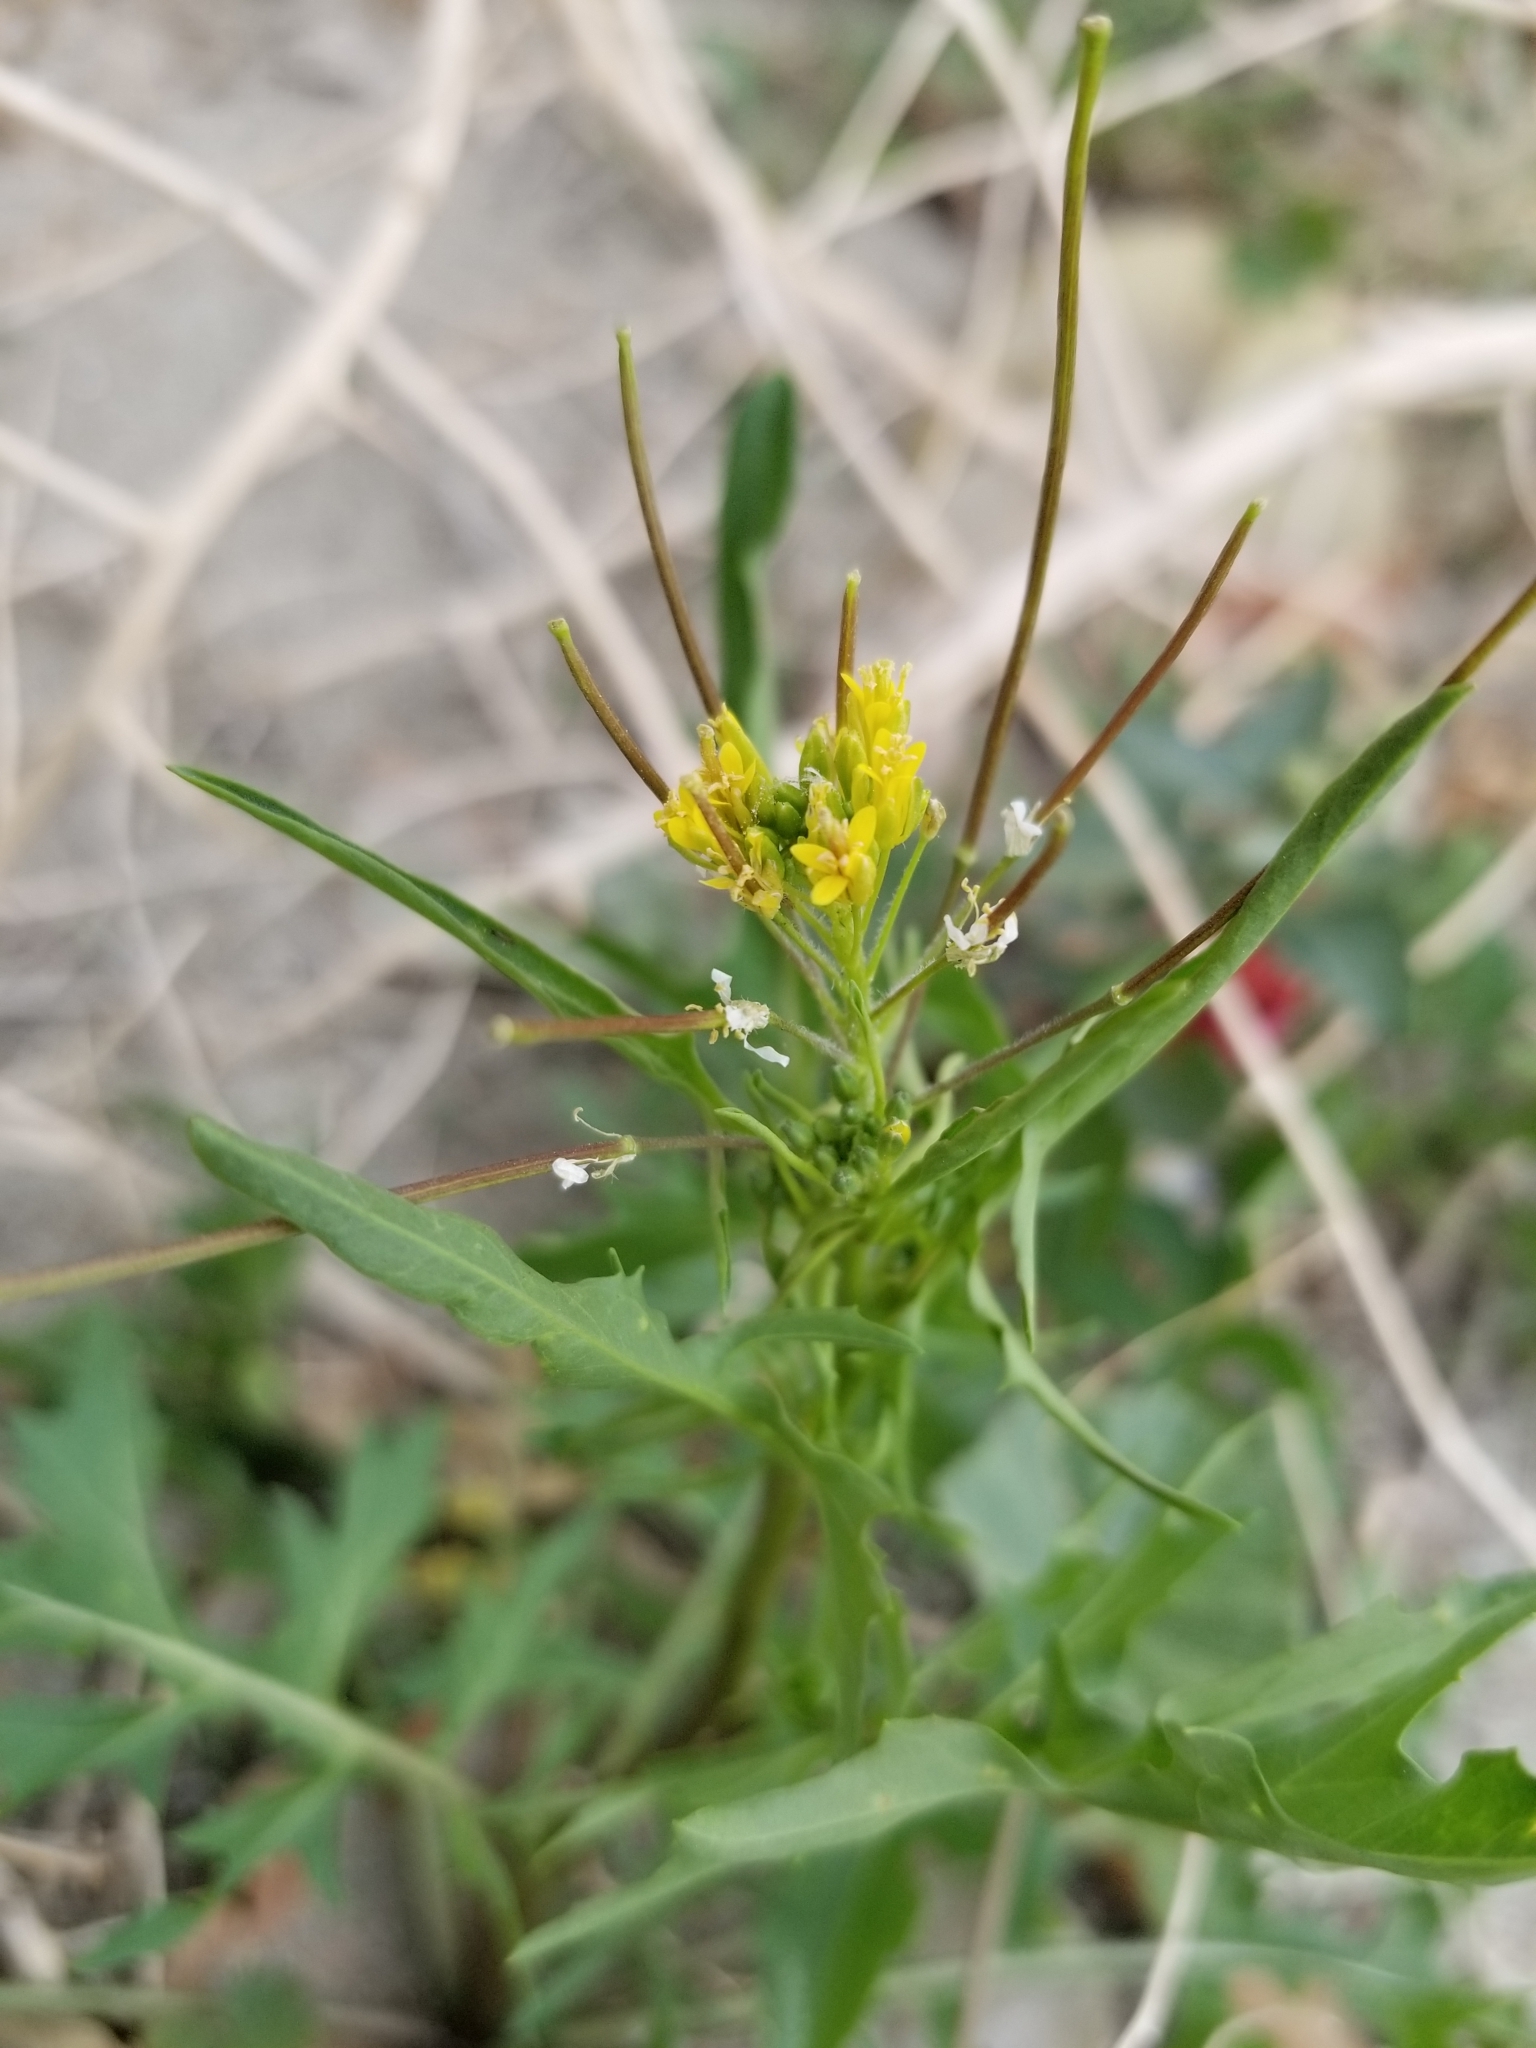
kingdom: Plantae
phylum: Tracheophyta
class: Magnoliopsida
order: Brassicales
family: Brassicaceae
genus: Sisymbrium
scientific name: Sisymbrium irio
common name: London rocket
